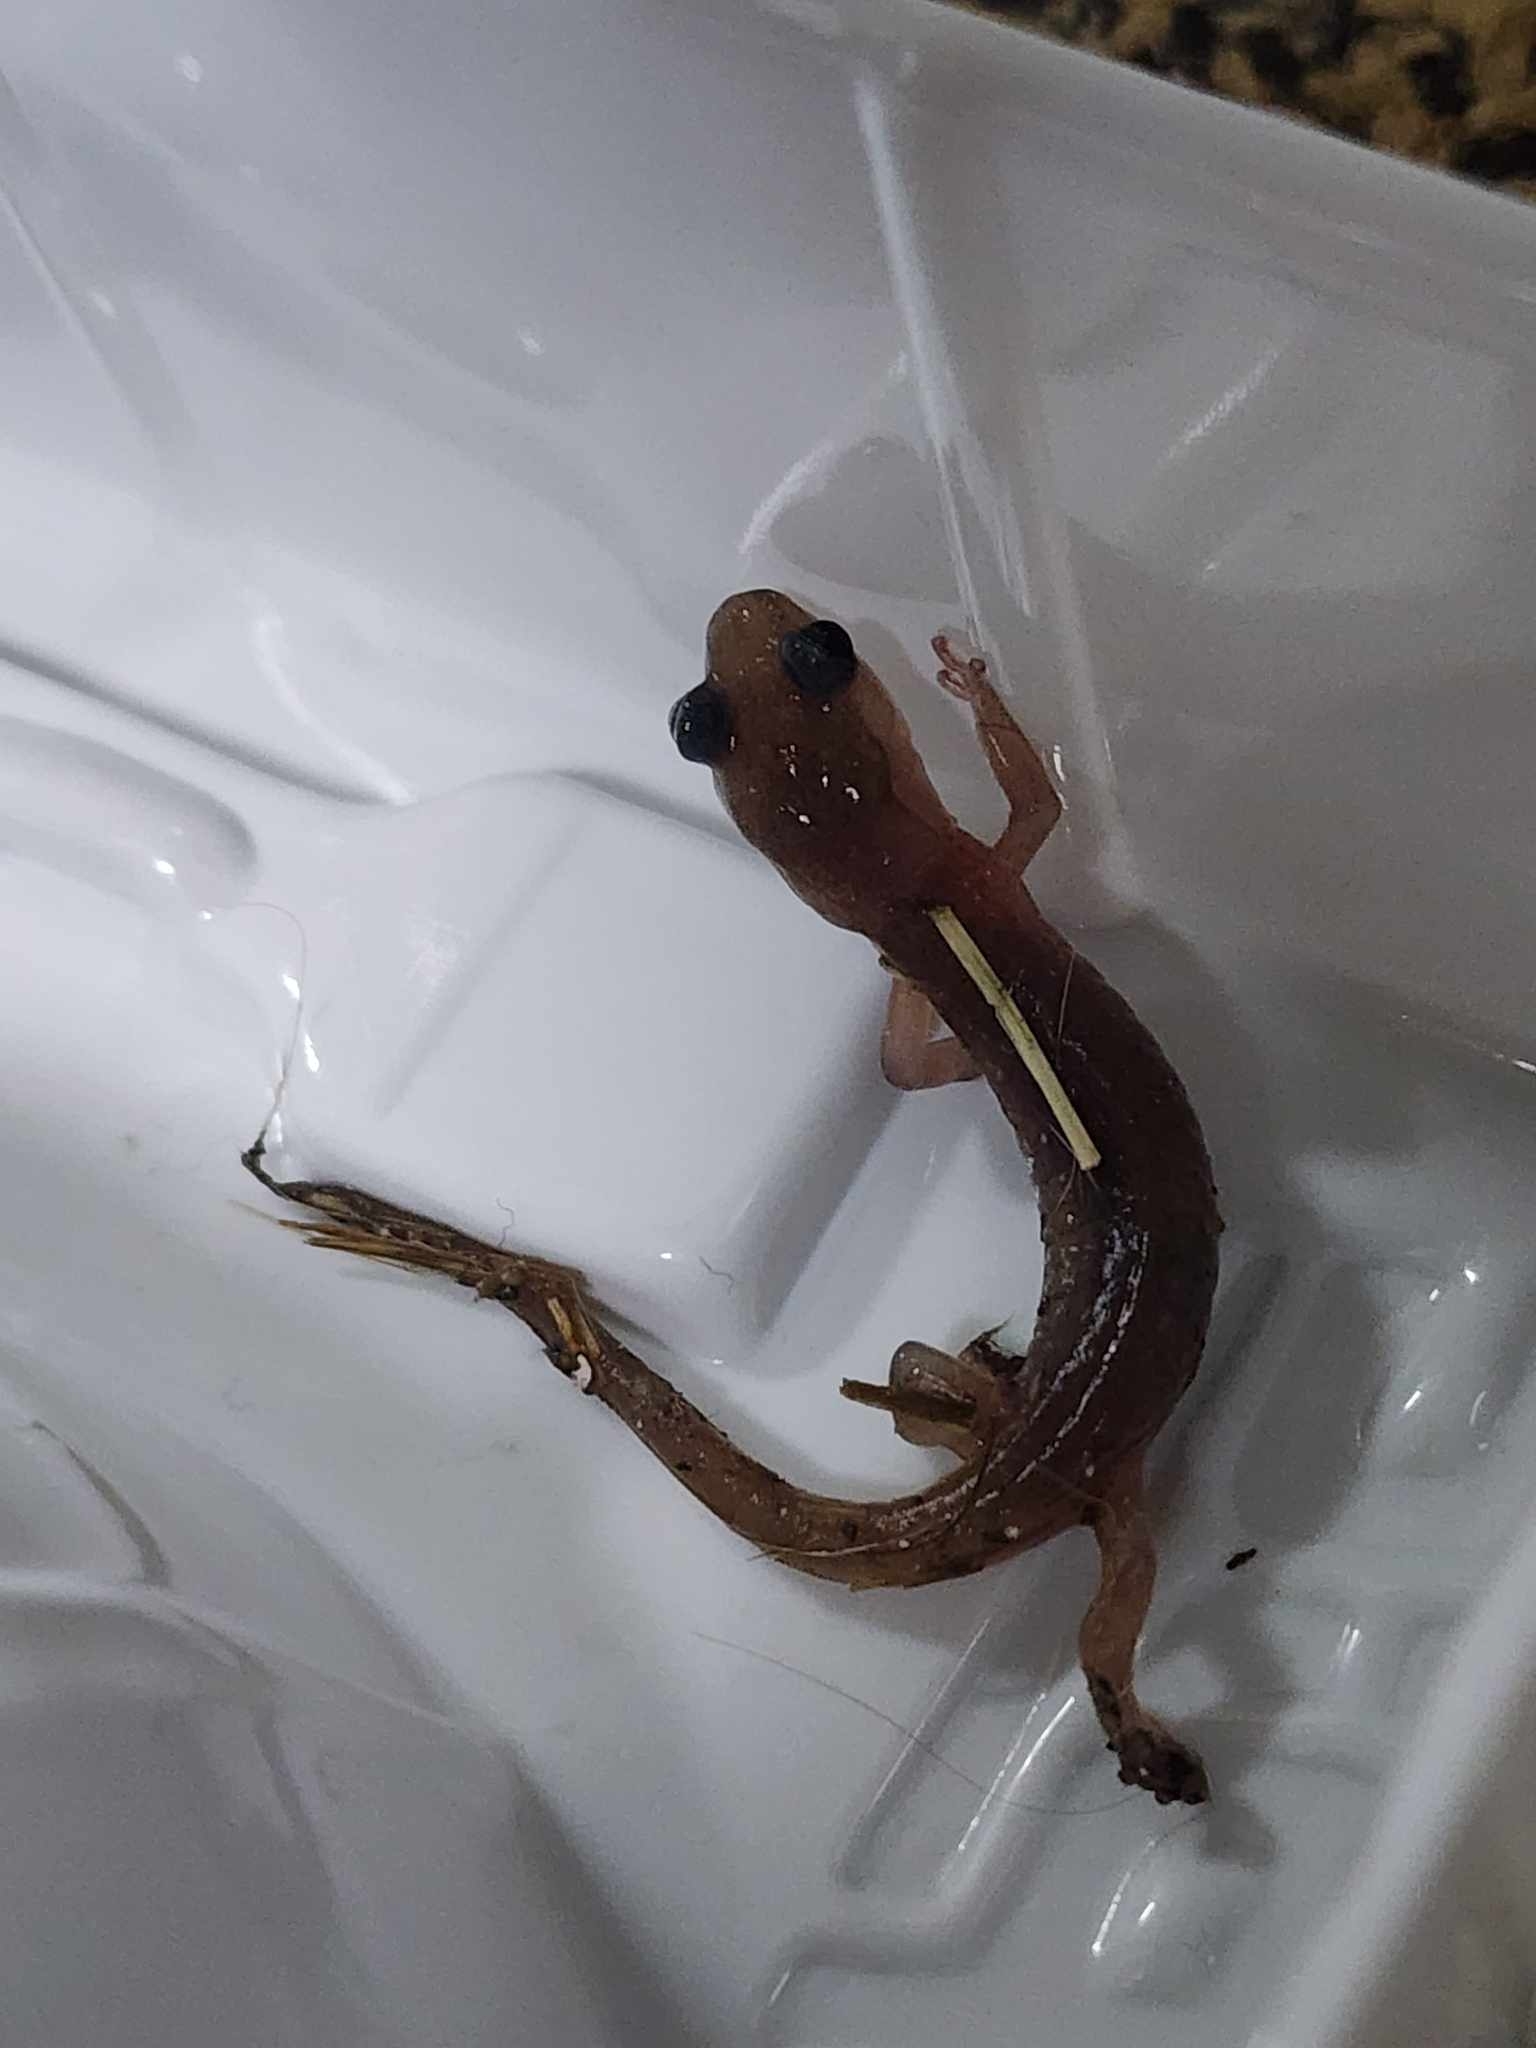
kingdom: Animalia
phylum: Chordata
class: Amphibia
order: Caudata
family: Plethodontidae
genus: Aneides
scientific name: Aneides lugubris
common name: Arboreal salamander
